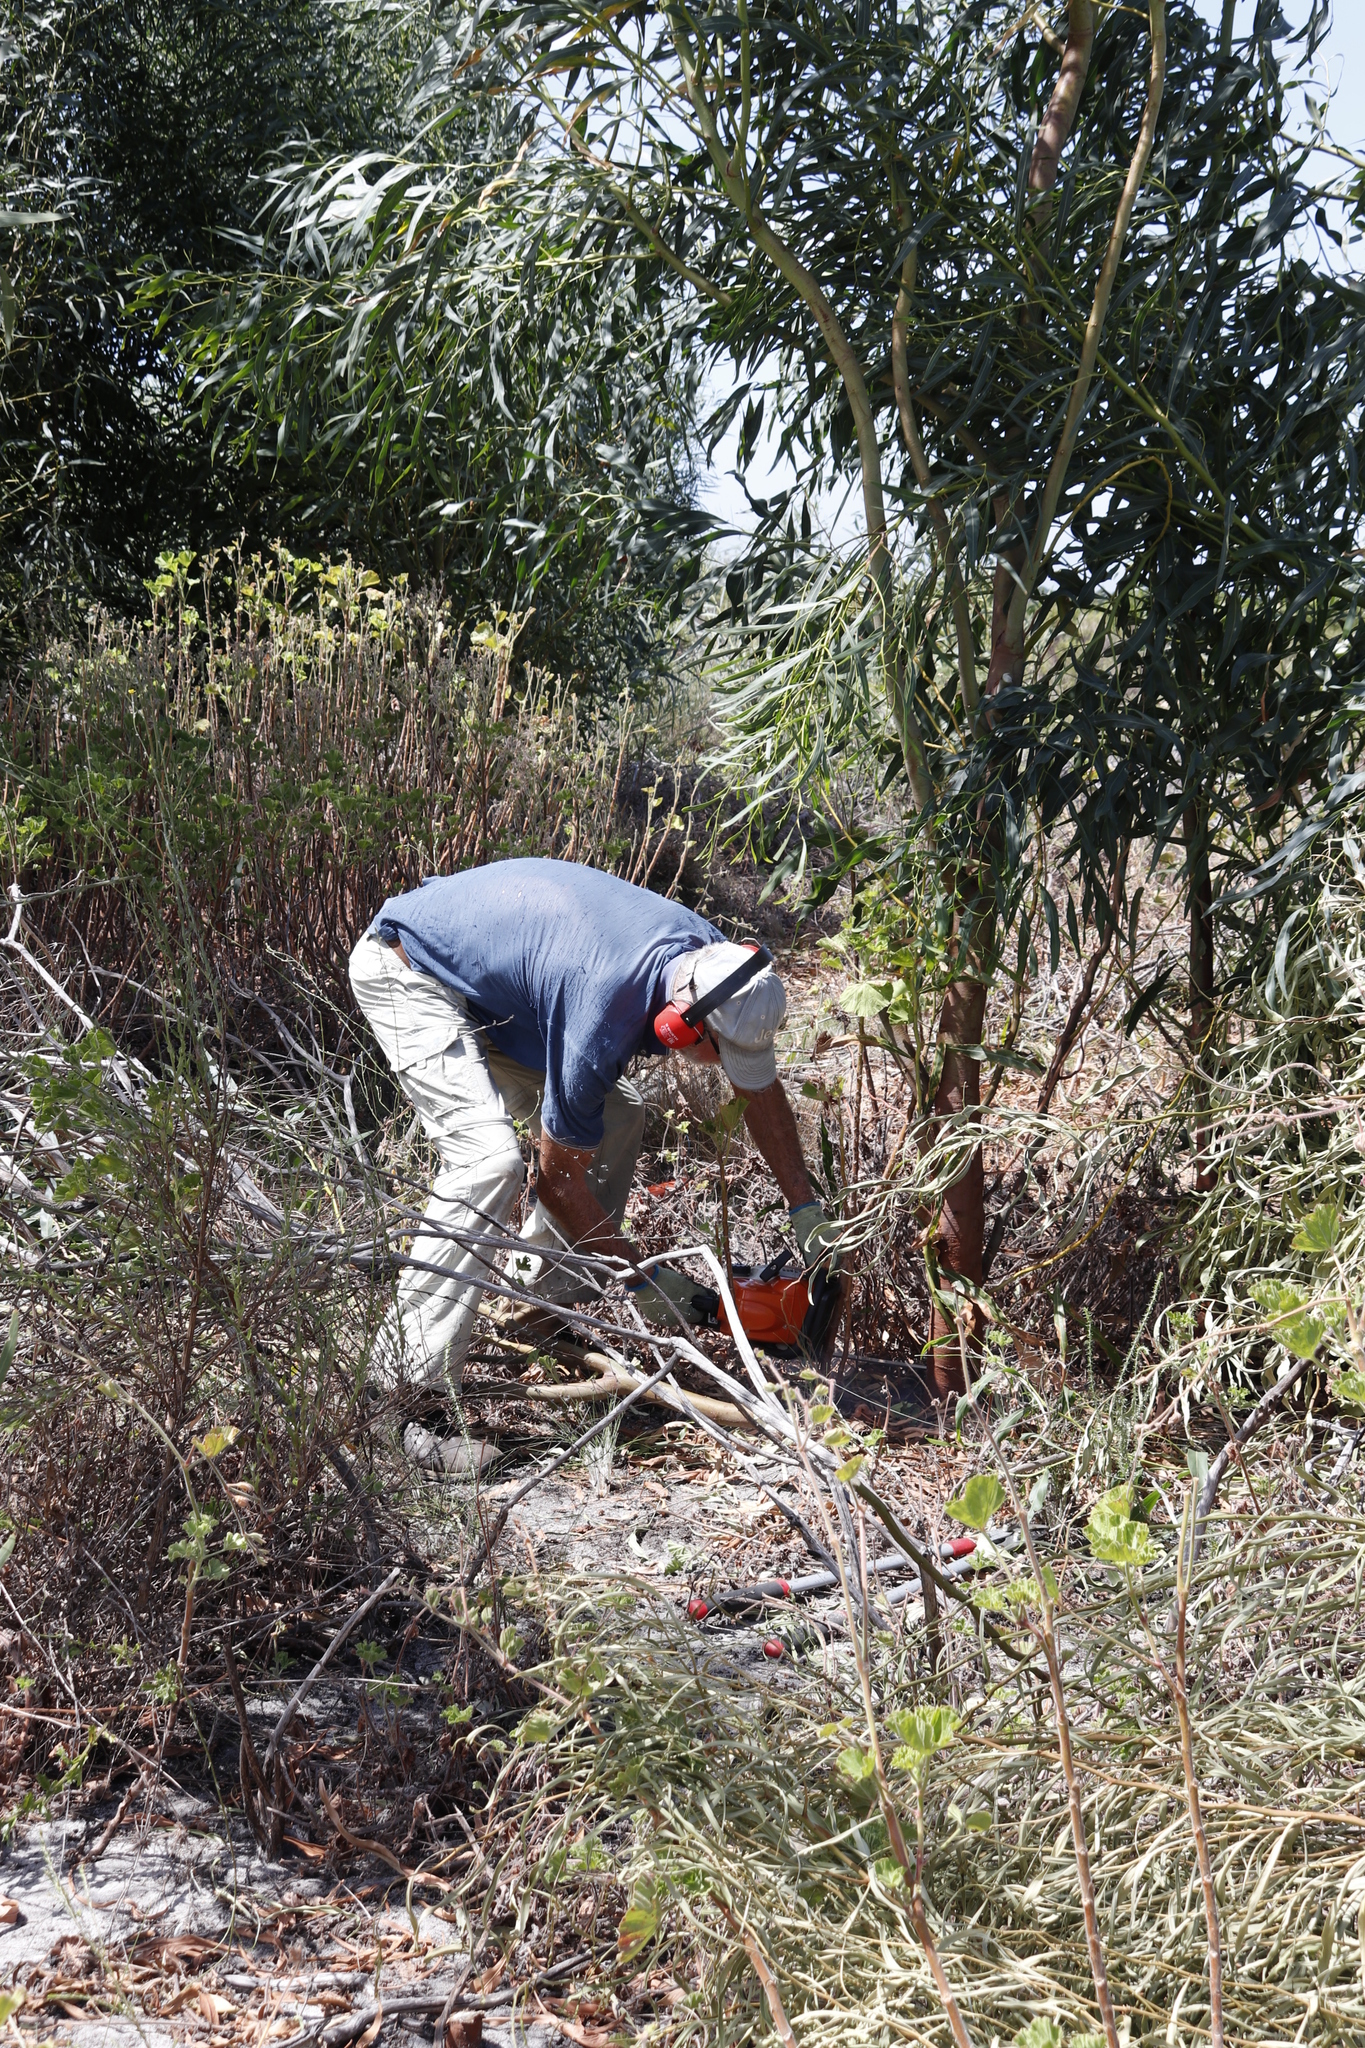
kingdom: Plantae
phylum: Tracheophyta
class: Magnoliopsida
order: Fabales
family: Fabaceae
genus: Acacia
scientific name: Acacia saligna
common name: Orange wattle
